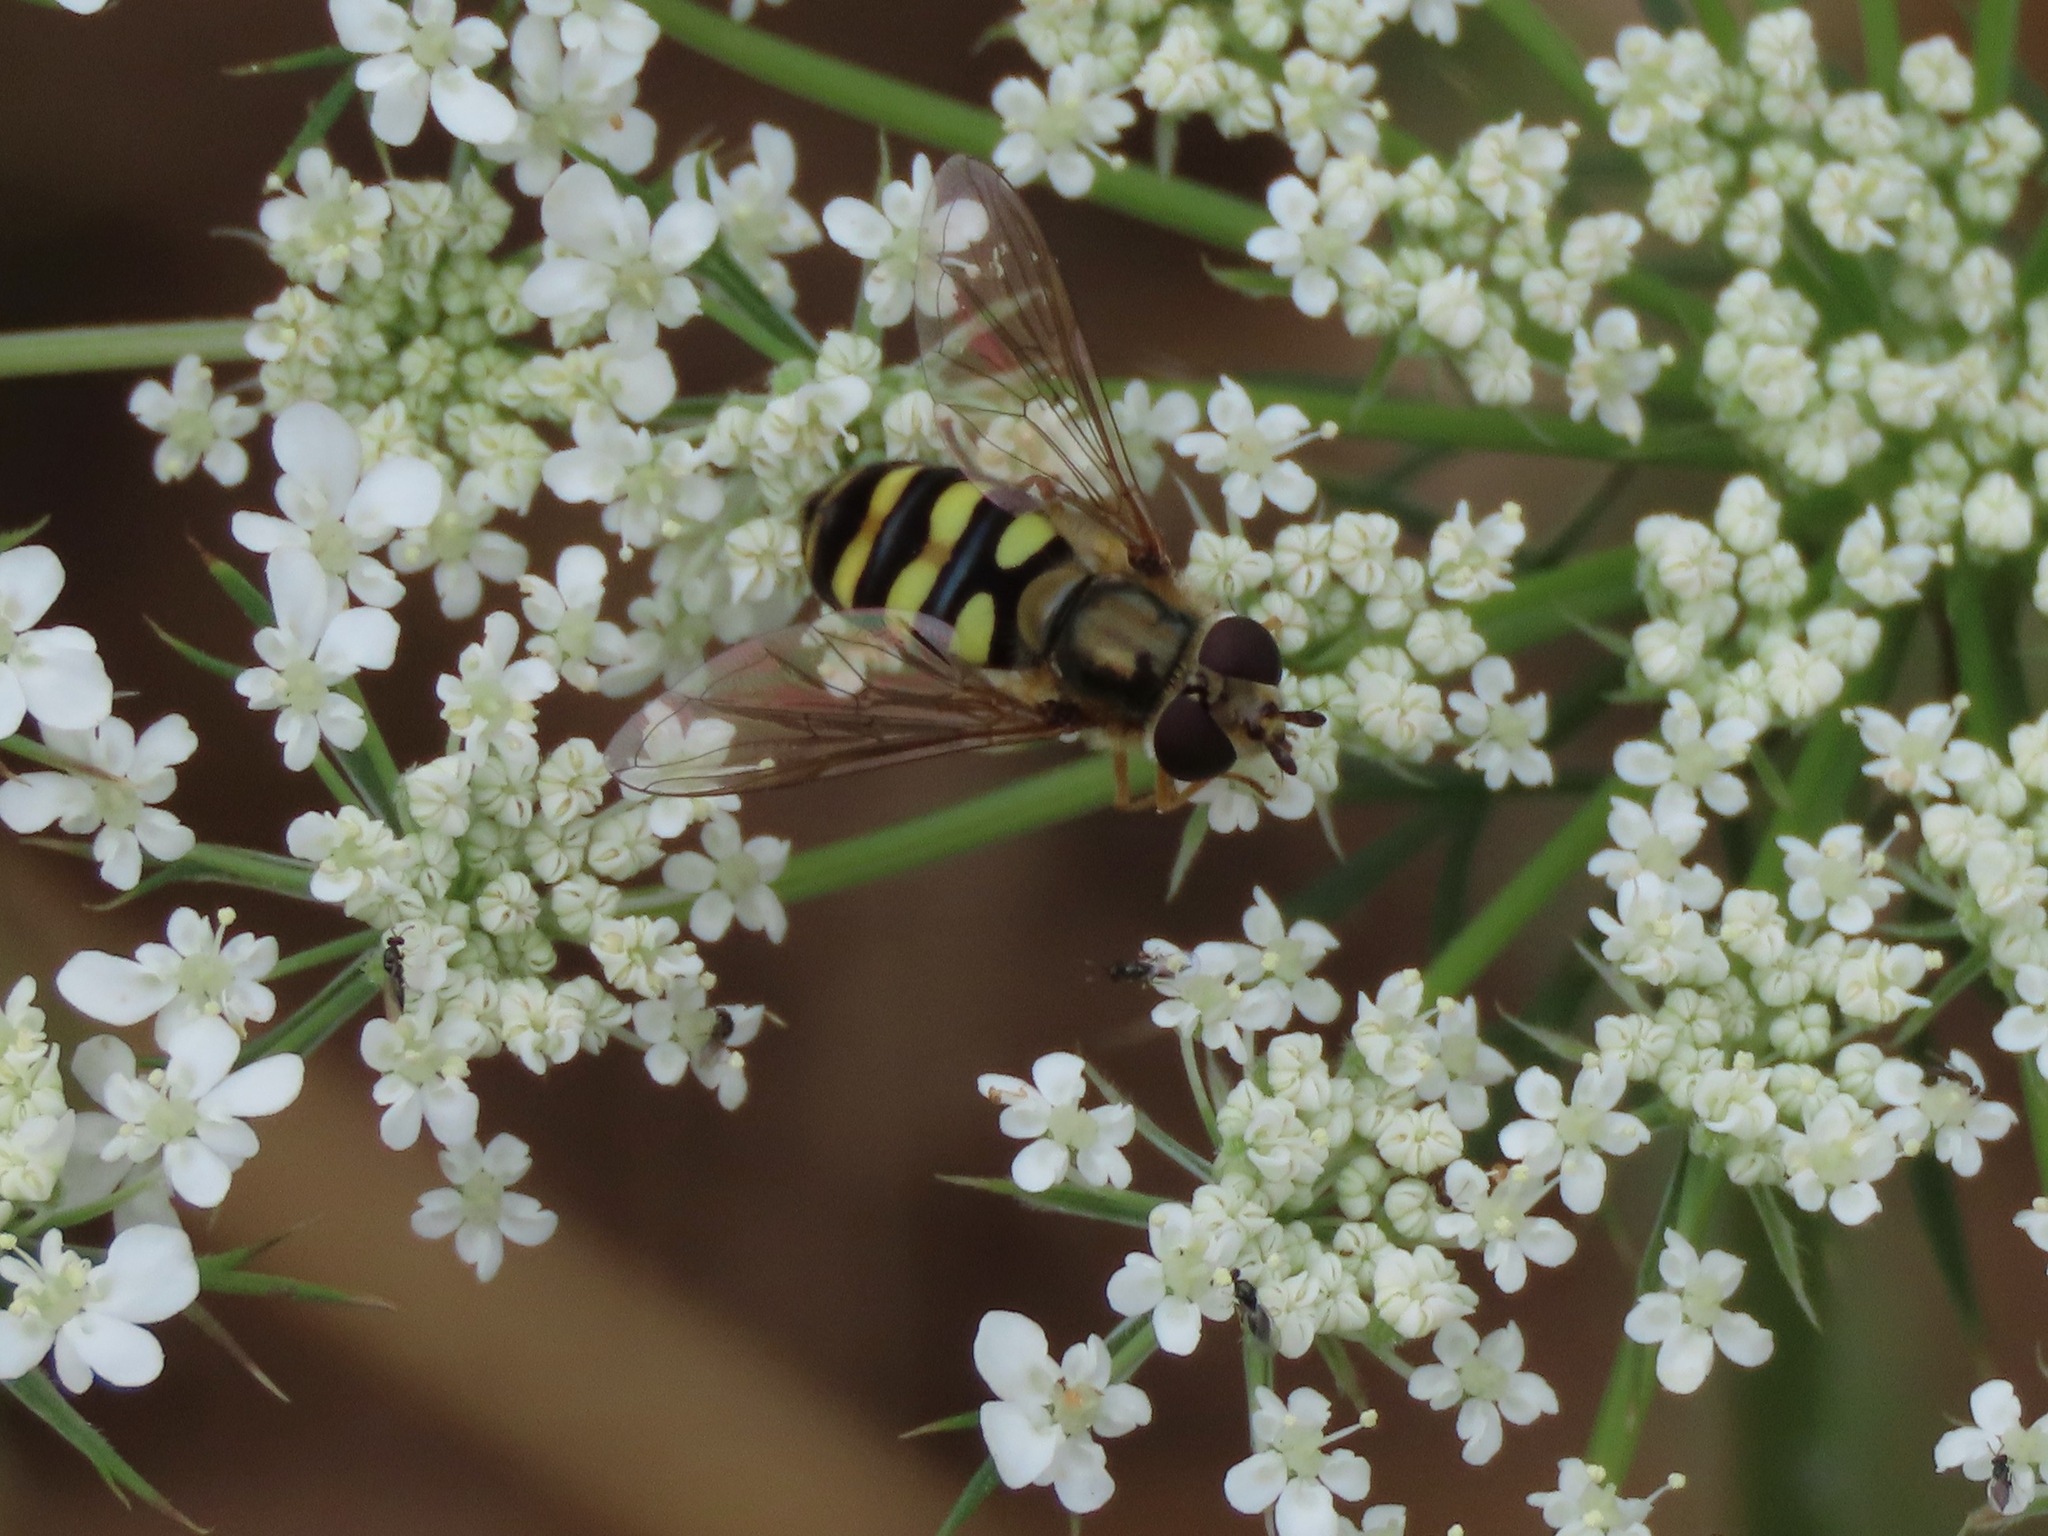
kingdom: Animalia
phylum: Arthropoda
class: Insecta
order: Diptera
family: Syrphidae
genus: Eupeodes
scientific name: Eupeodes fumipennis
